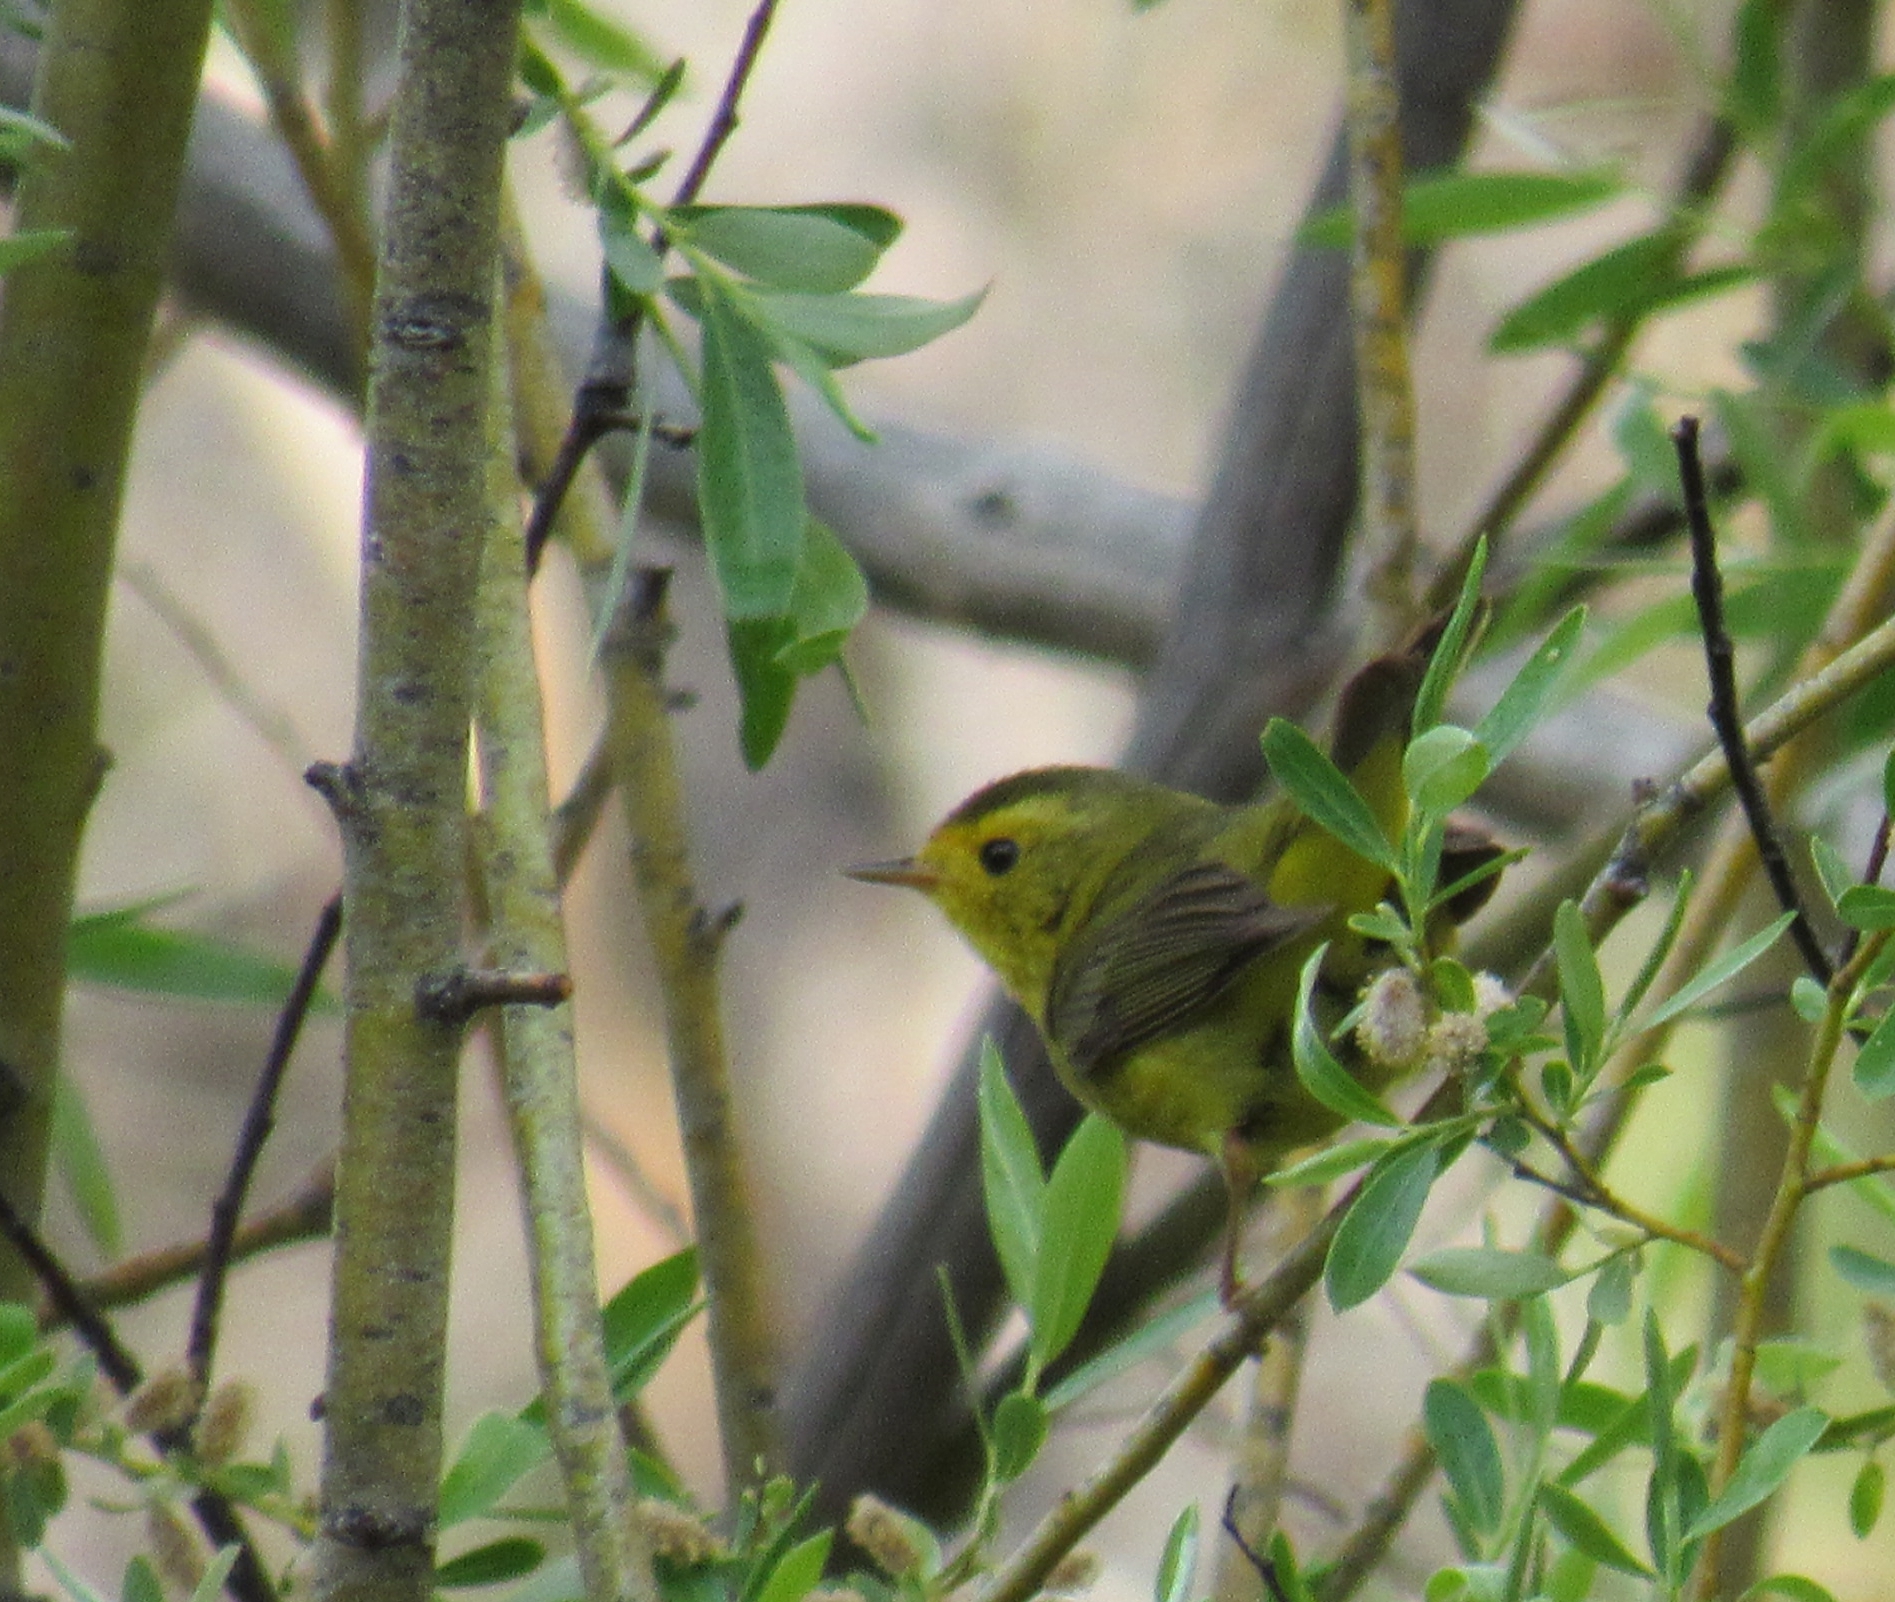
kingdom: Animalia
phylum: Chordata
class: Aves
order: Passeriformes
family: Parulidae
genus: Cardellina
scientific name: Cardellina pusilla
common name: Wilson's warbler
